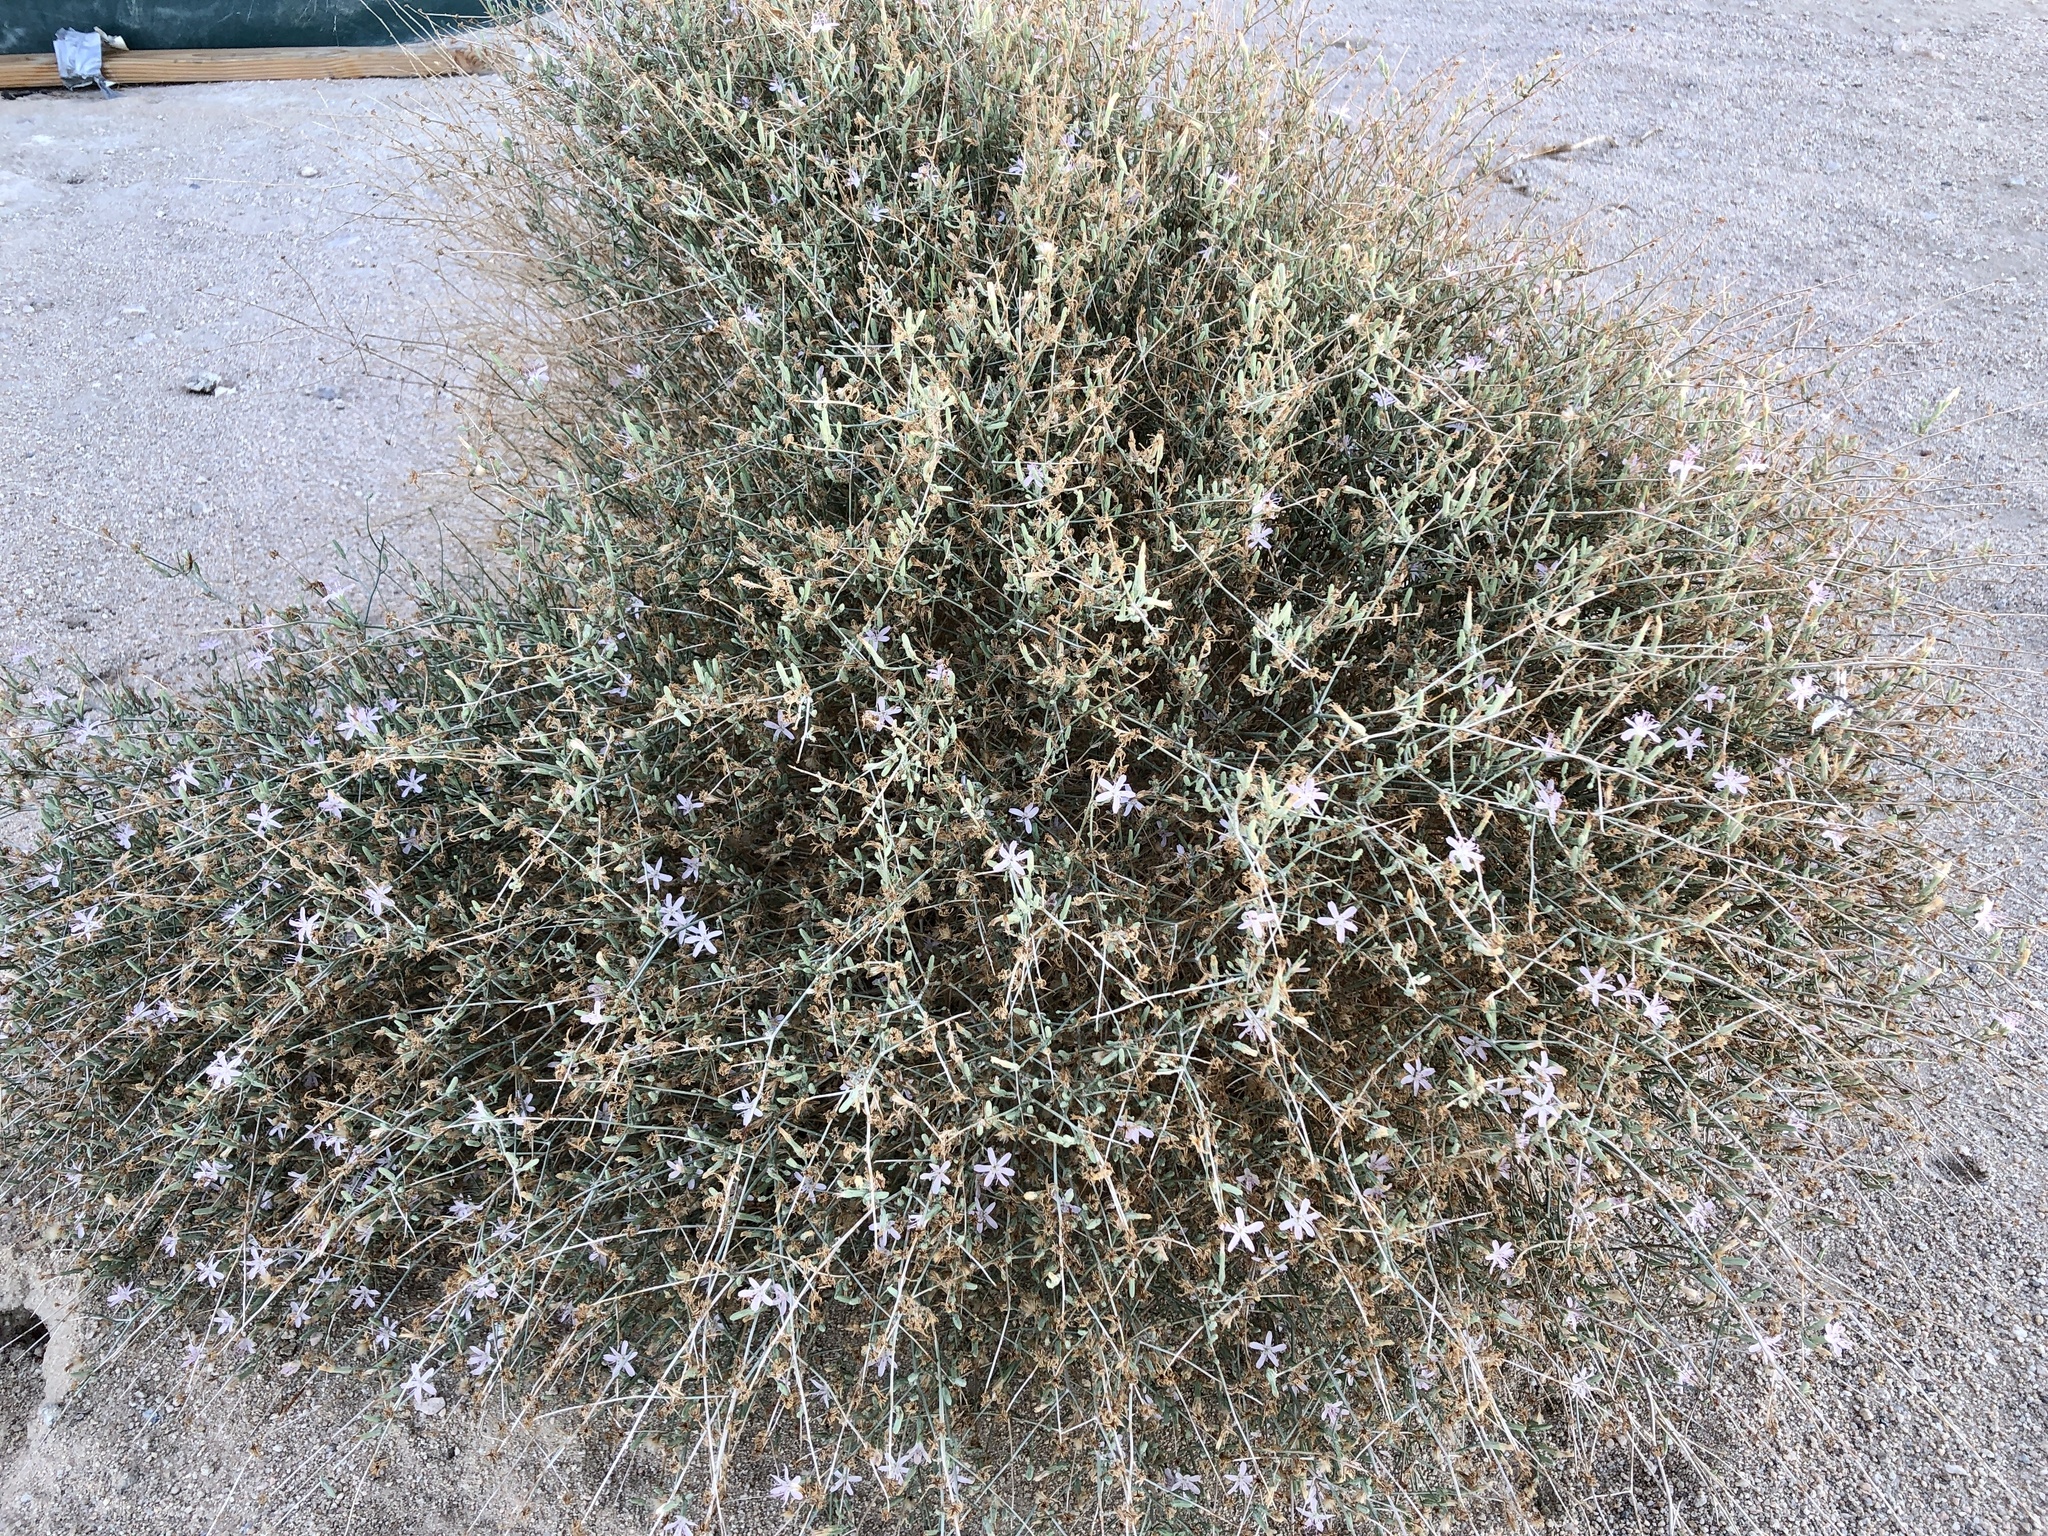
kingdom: Plantae
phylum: Tracheophyta
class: Magnoliopsida
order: Asterales
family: Asteraceae
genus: Stephanomeria
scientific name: Stephanomeria pauciflora
